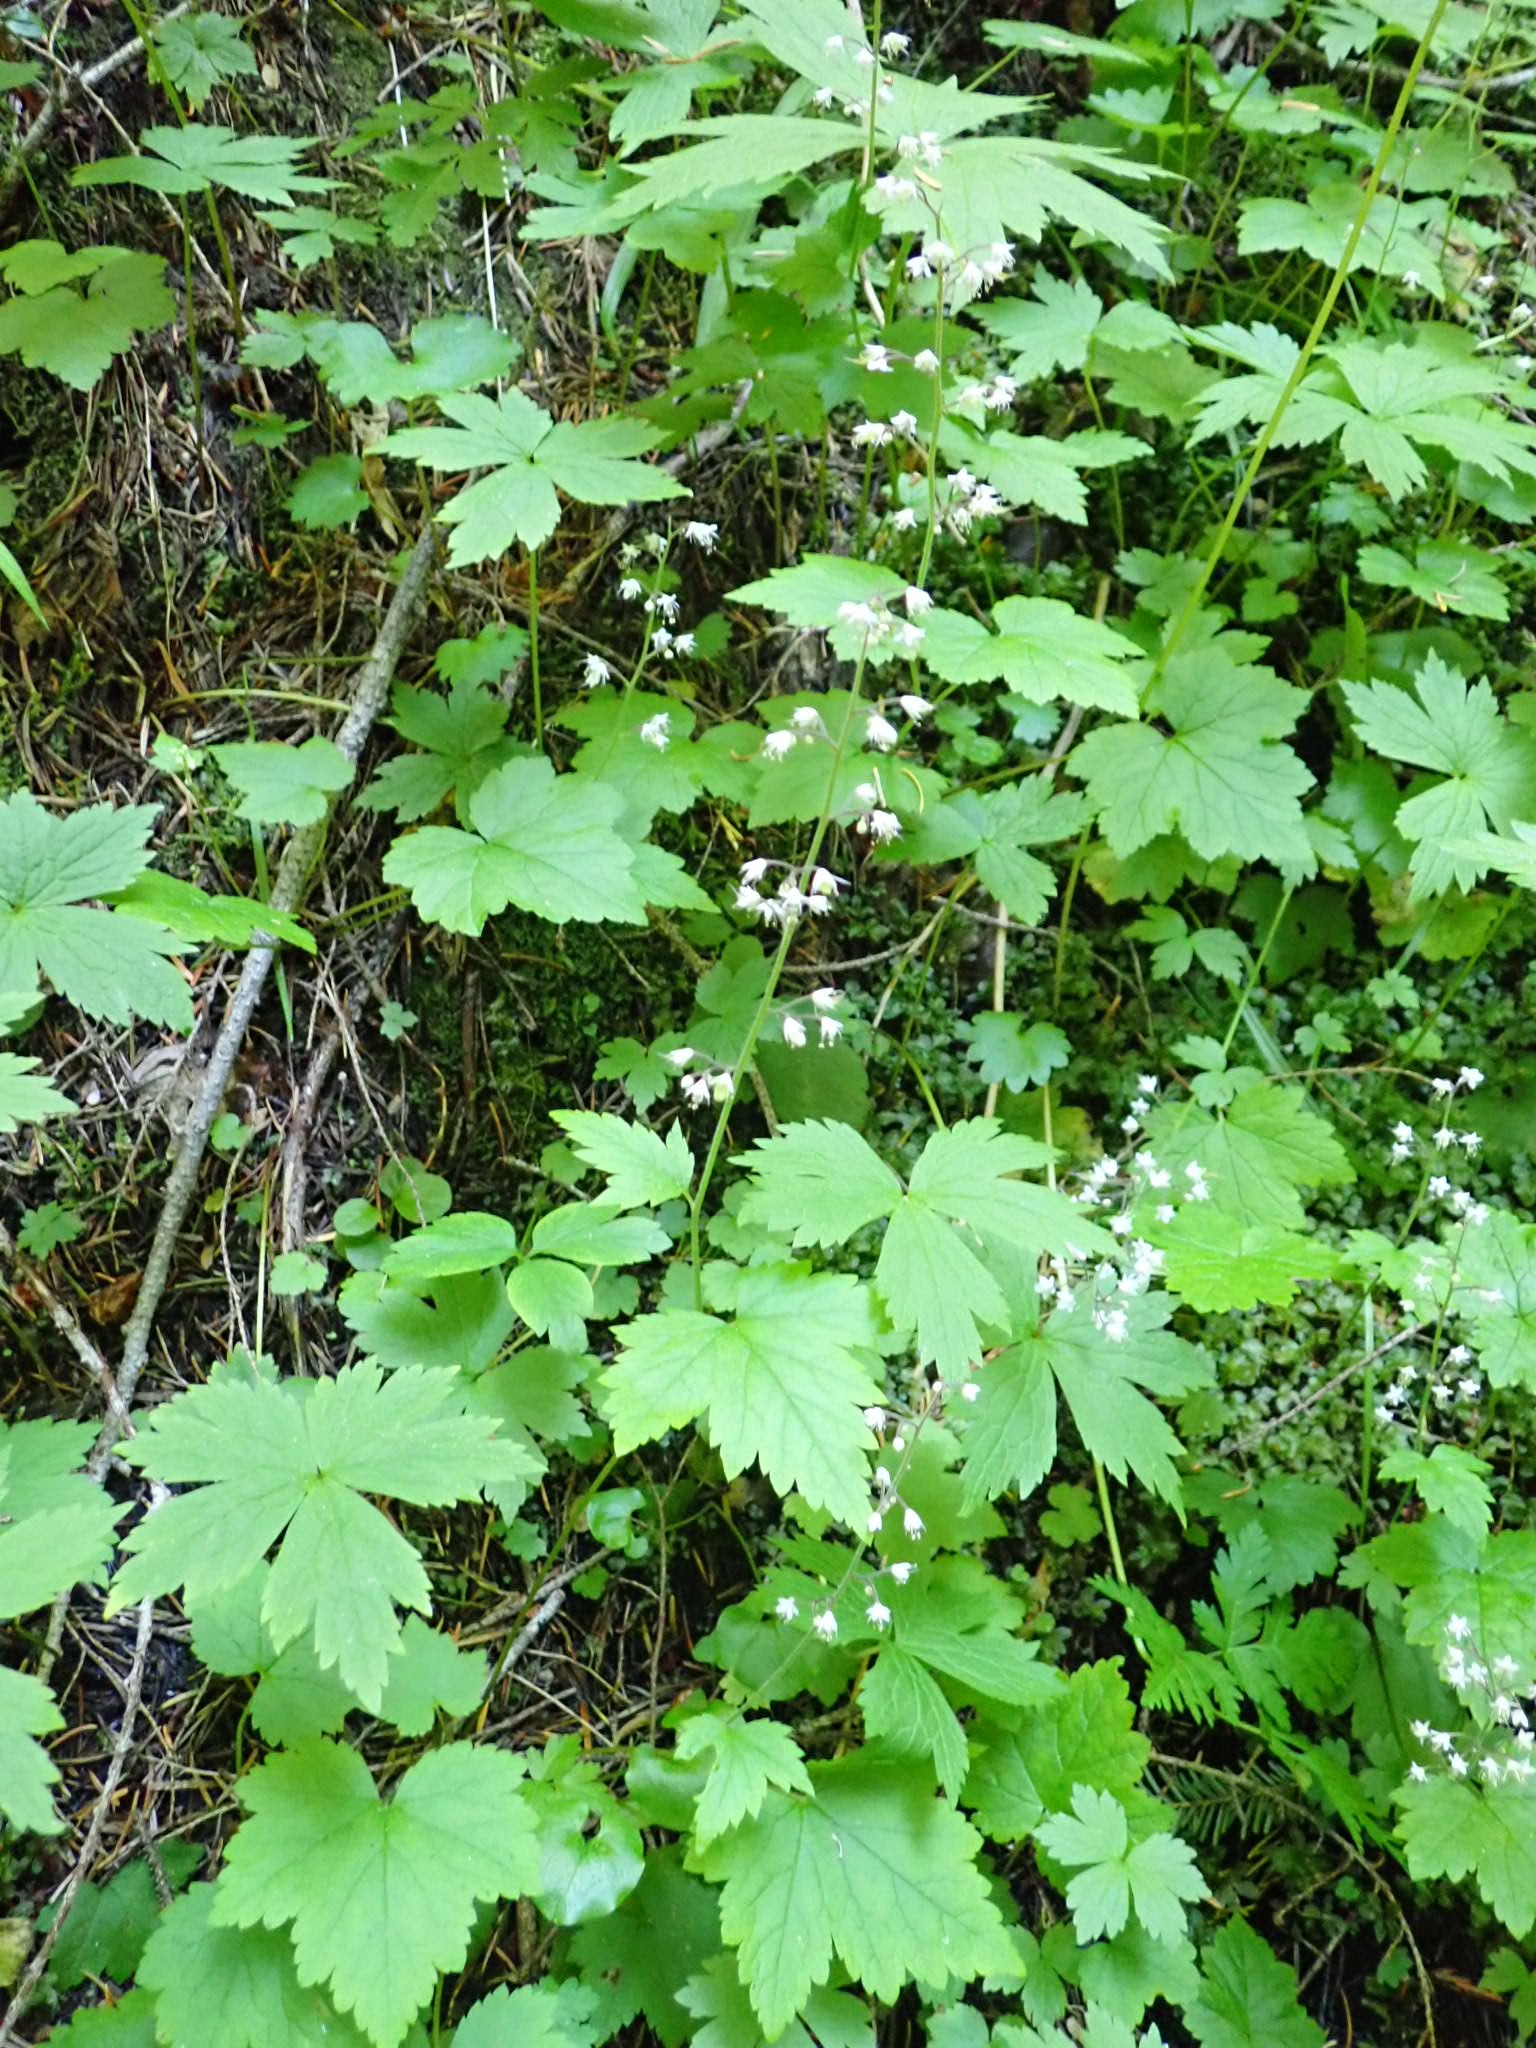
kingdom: Plantae
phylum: Tracheophyta
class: Magnoliopsida
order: Saxifragales
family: Saxifragaceae
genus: Tiarella
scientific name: Tiarella trifoliata
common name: Sugar-scoop
